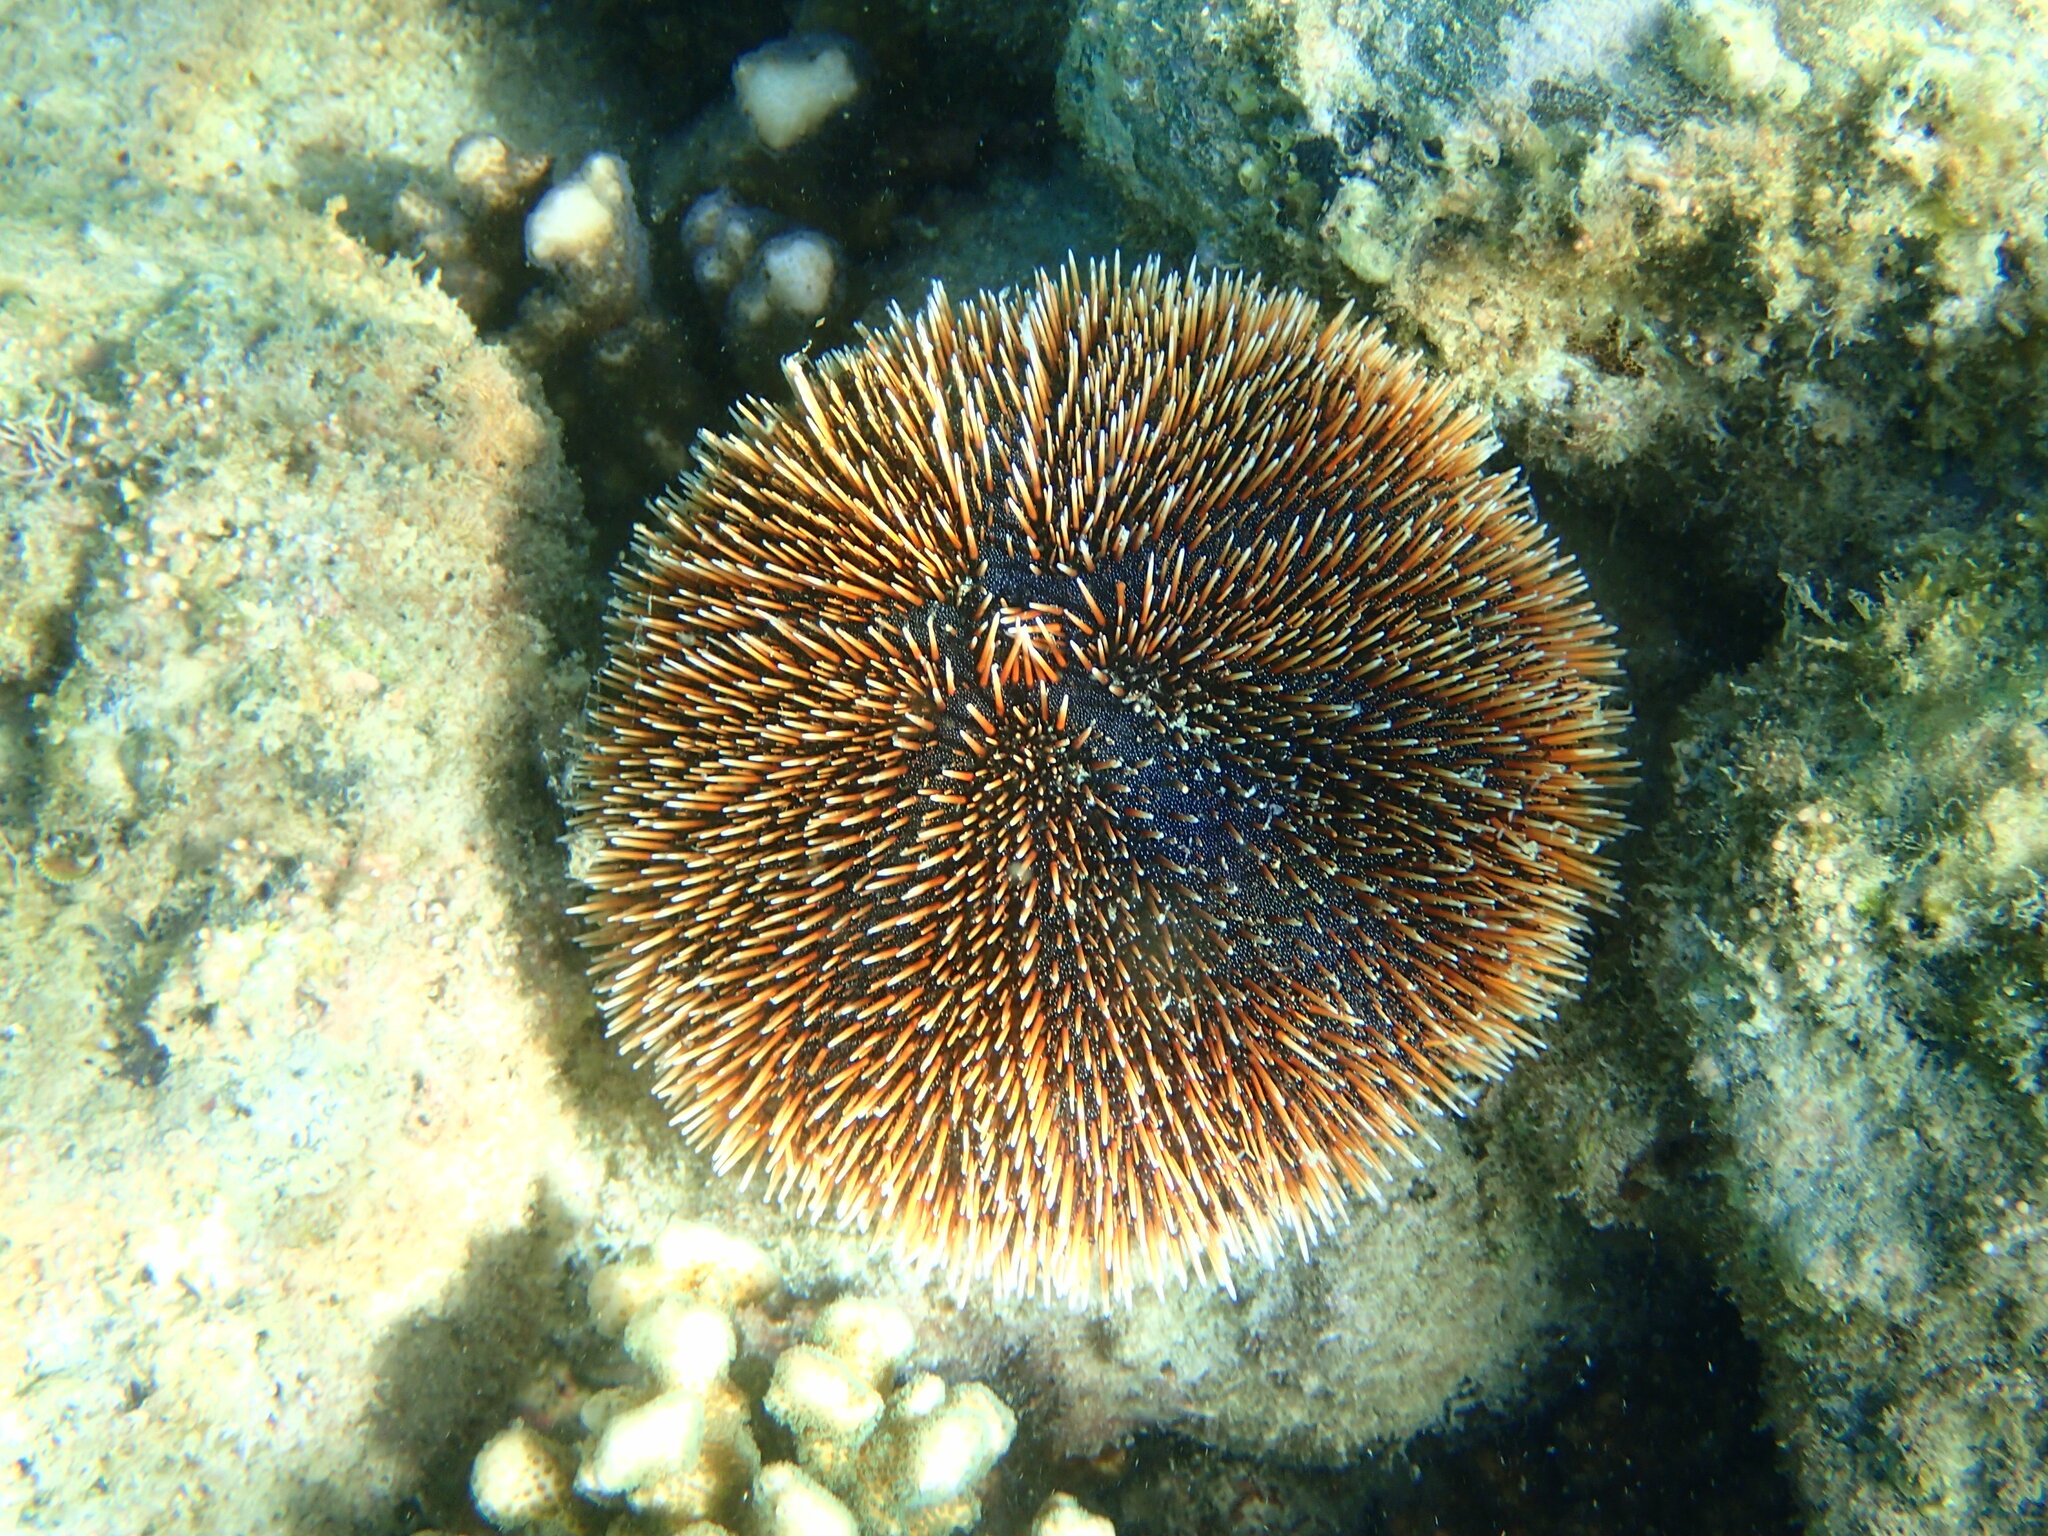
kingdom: Animalia
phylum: Echinodermata
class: Echinoidea
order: Camarodonta
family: Toxopneustidae
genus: Tripneustes
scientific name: Tripneustes depressus
